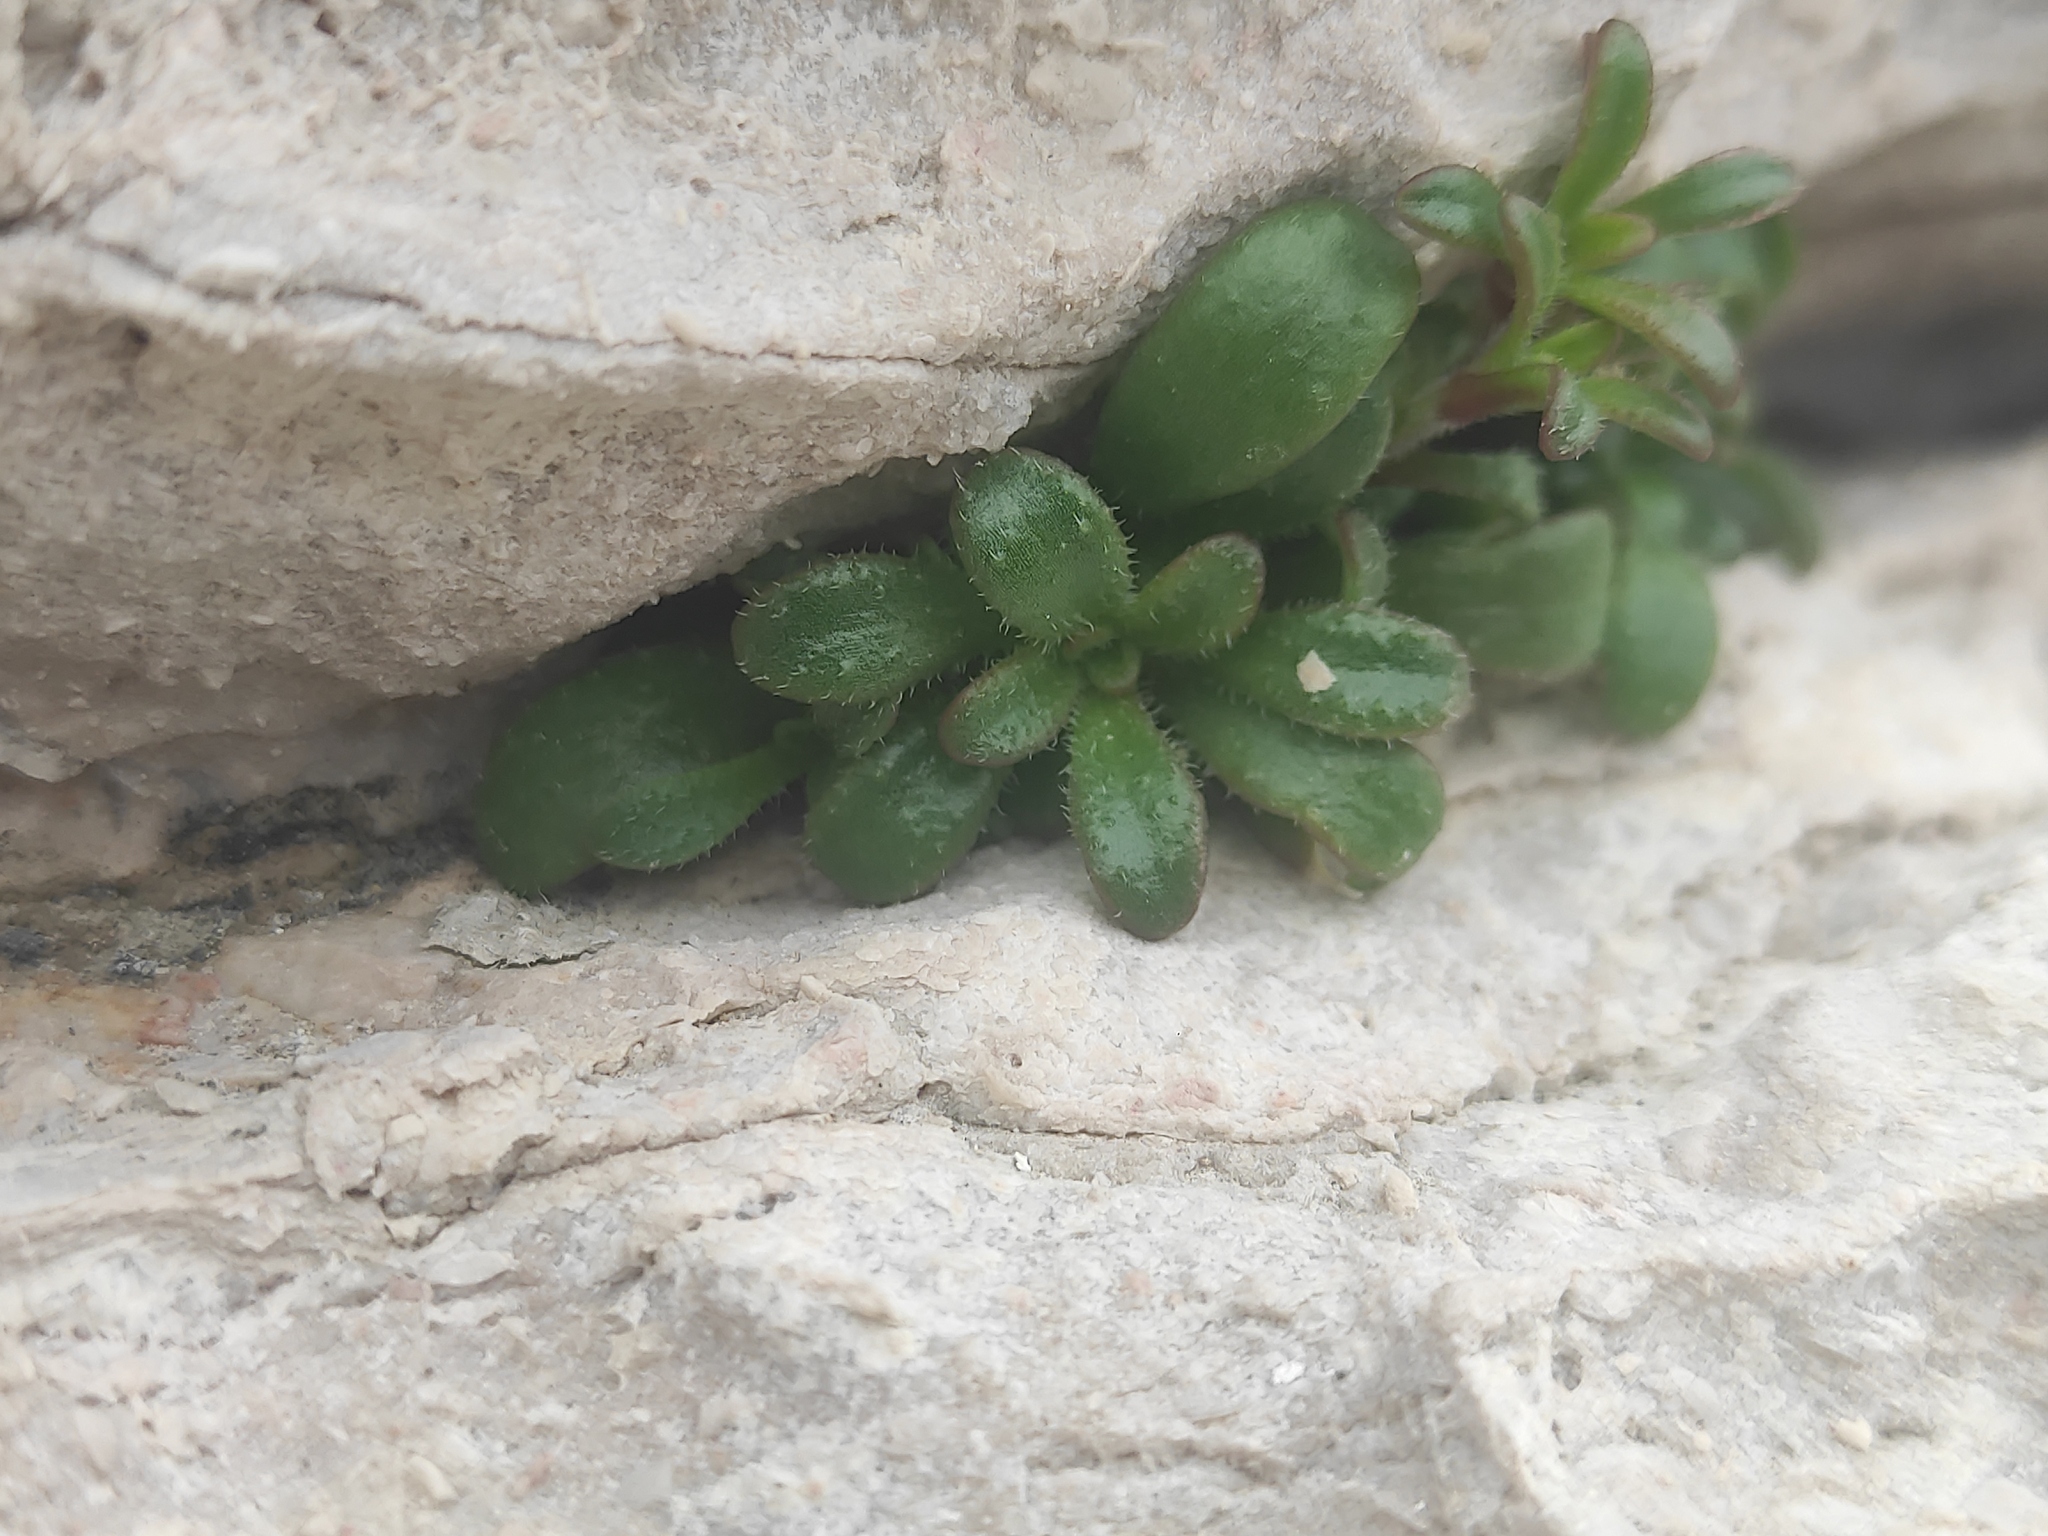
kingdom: Plantae
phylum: Tracheophyta
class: Magnoliopsida
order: Caryophyllales
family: Caryophyllaceae
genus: Silene
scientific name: Silene sedoides
